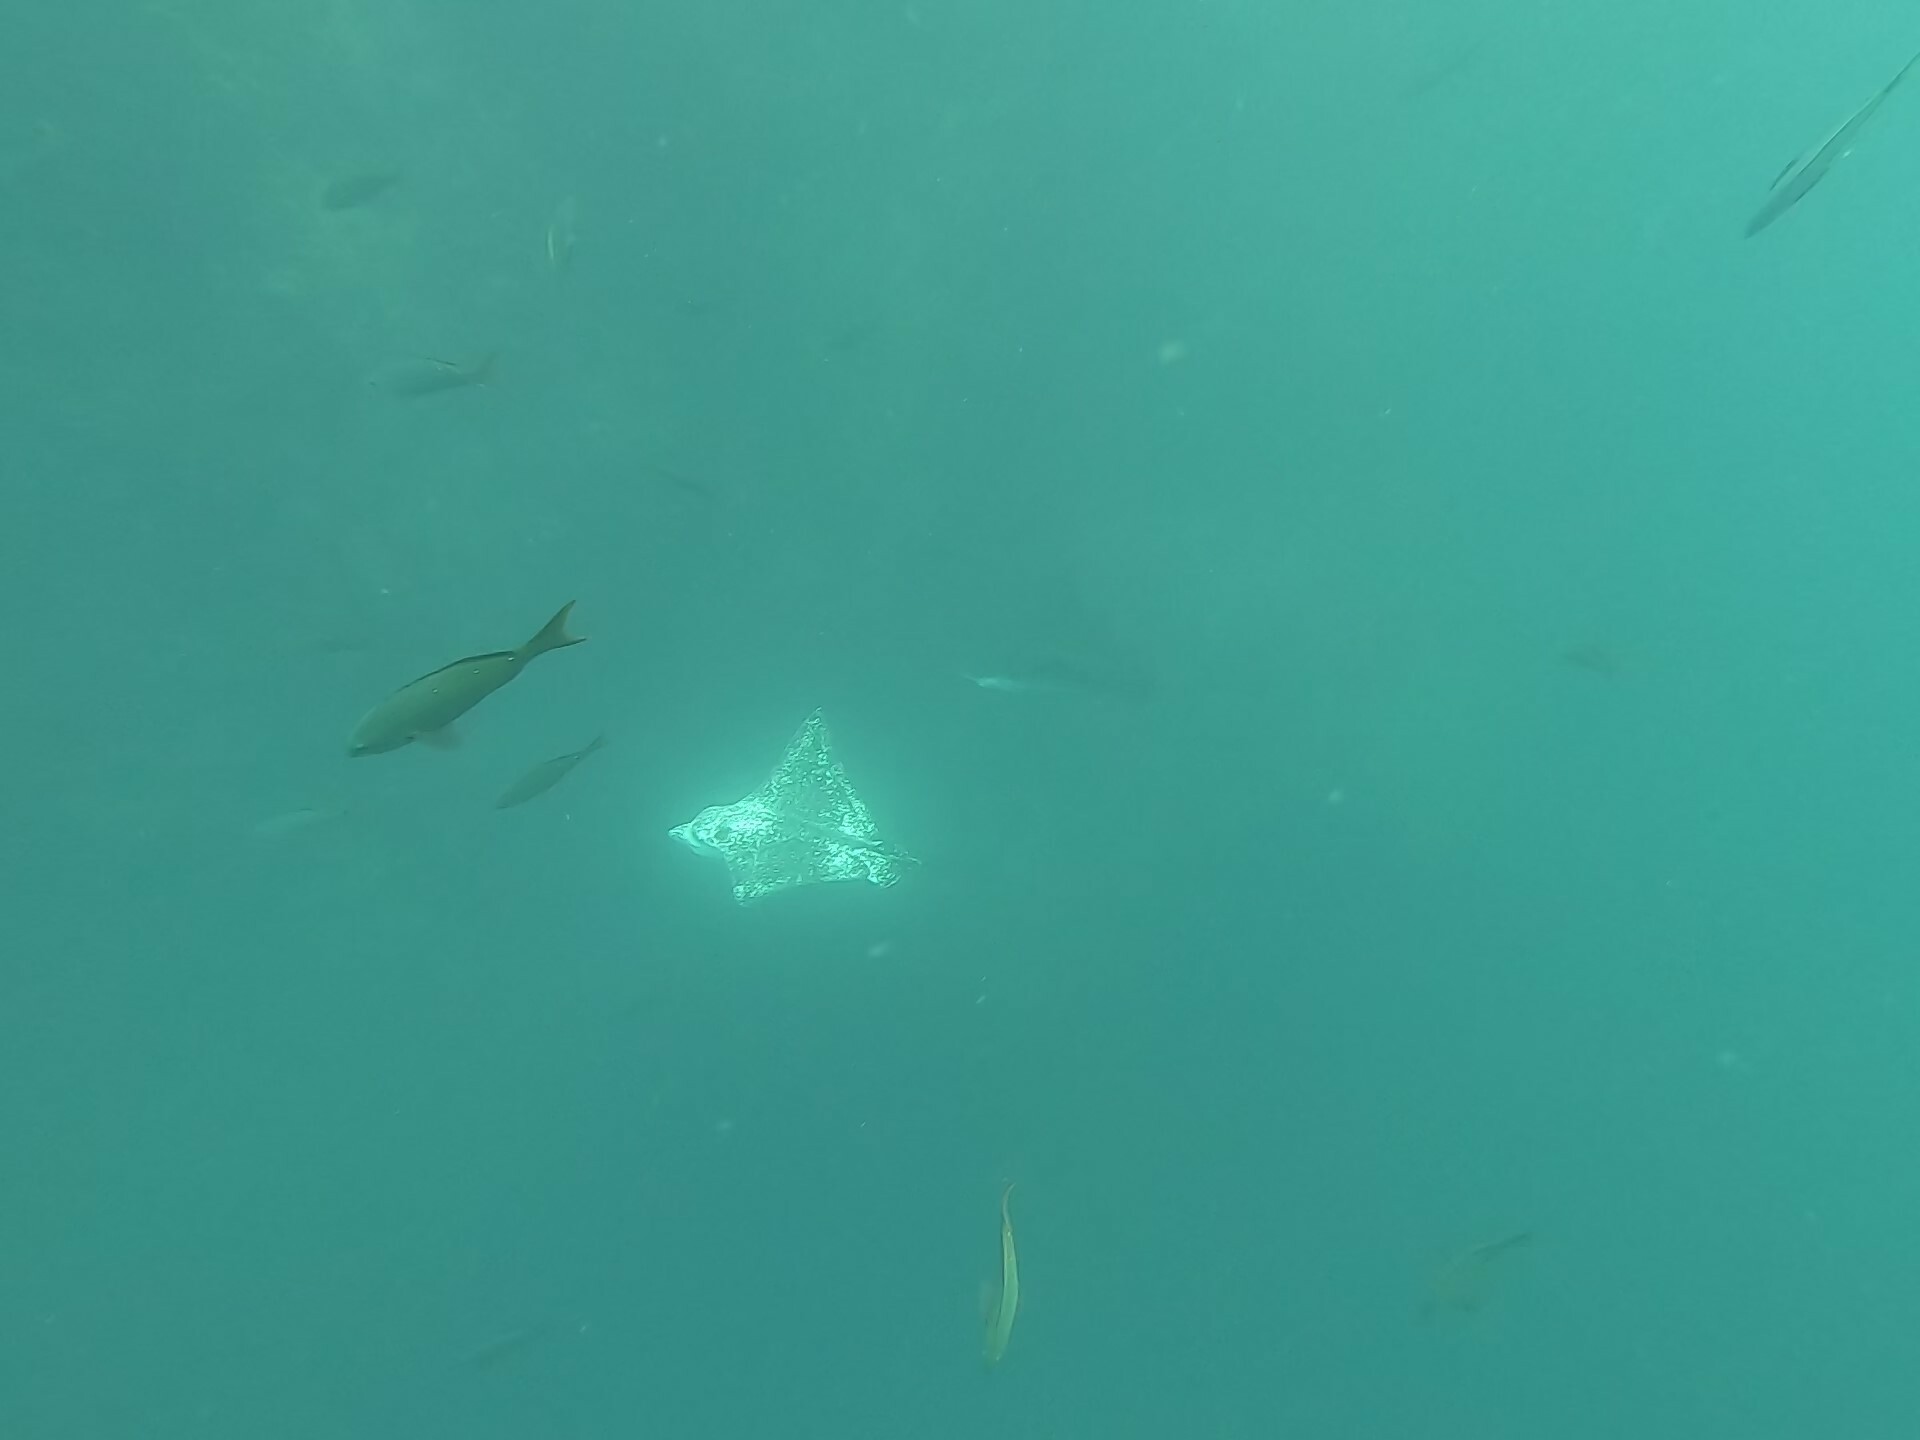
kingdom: Animalia
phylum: Chordata
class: Elasmobranchii
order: Myliobatiformes
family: Myliobatidae
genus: Aetobatus
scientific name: Aetobatus ocellatus
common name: Ocellated eagle ray
